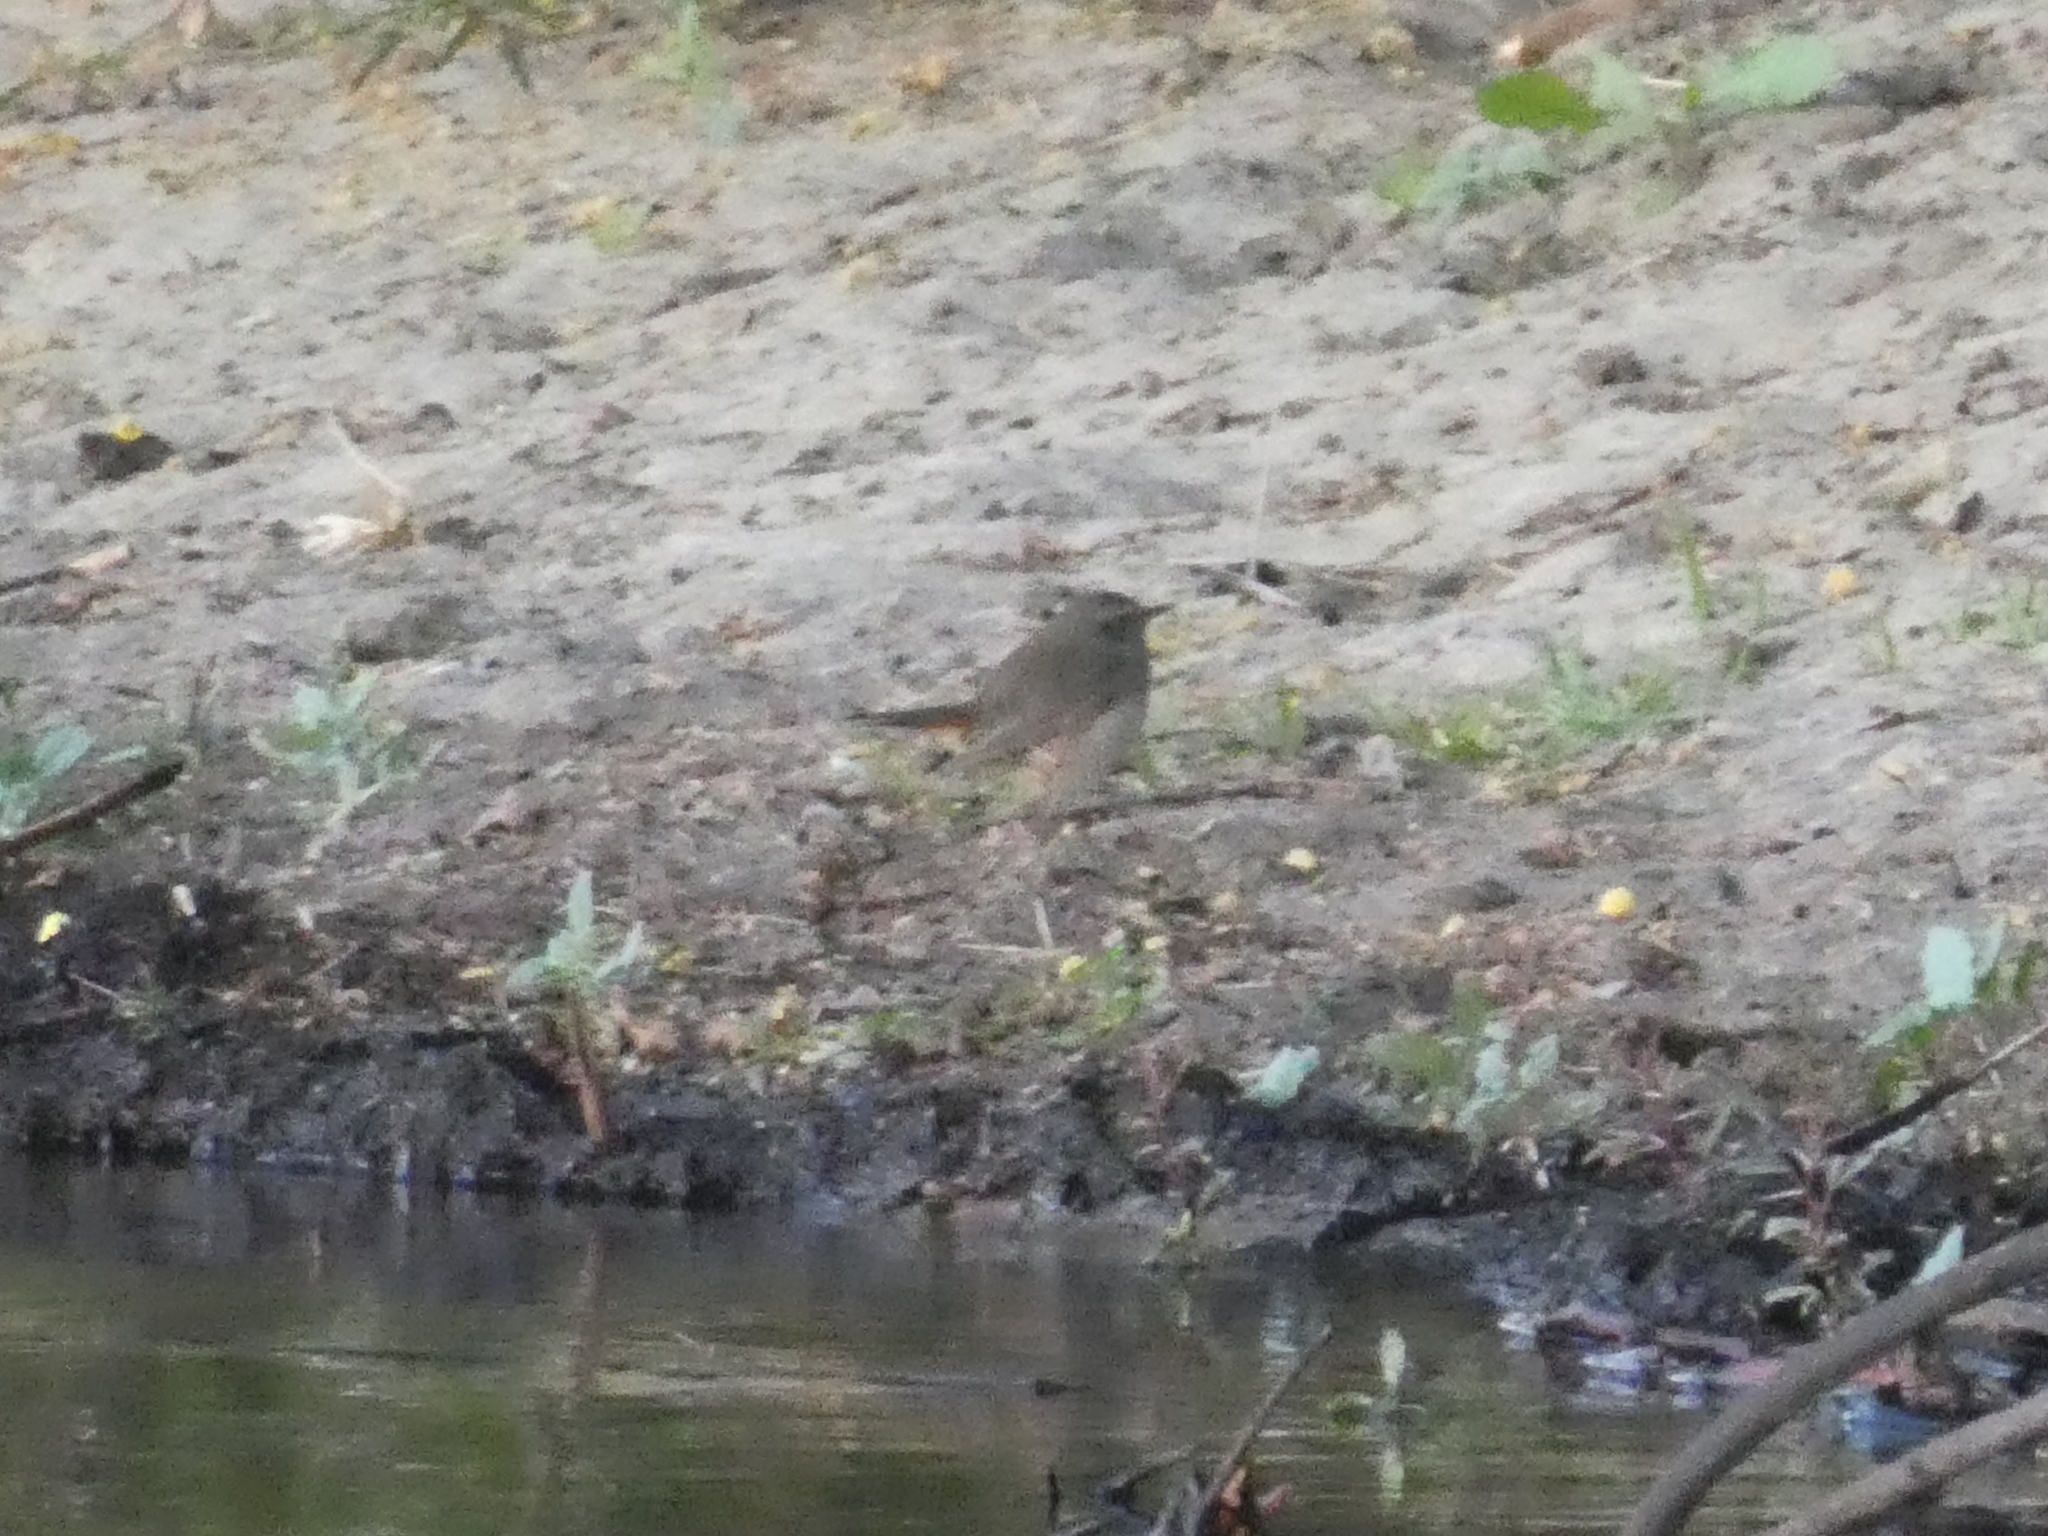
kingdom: Animalia
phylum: Chordata
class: Aves
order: Passeriformes
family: Muscicapidae
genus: Luscinia
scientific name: Luscinia svecica
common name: Bluethroat
